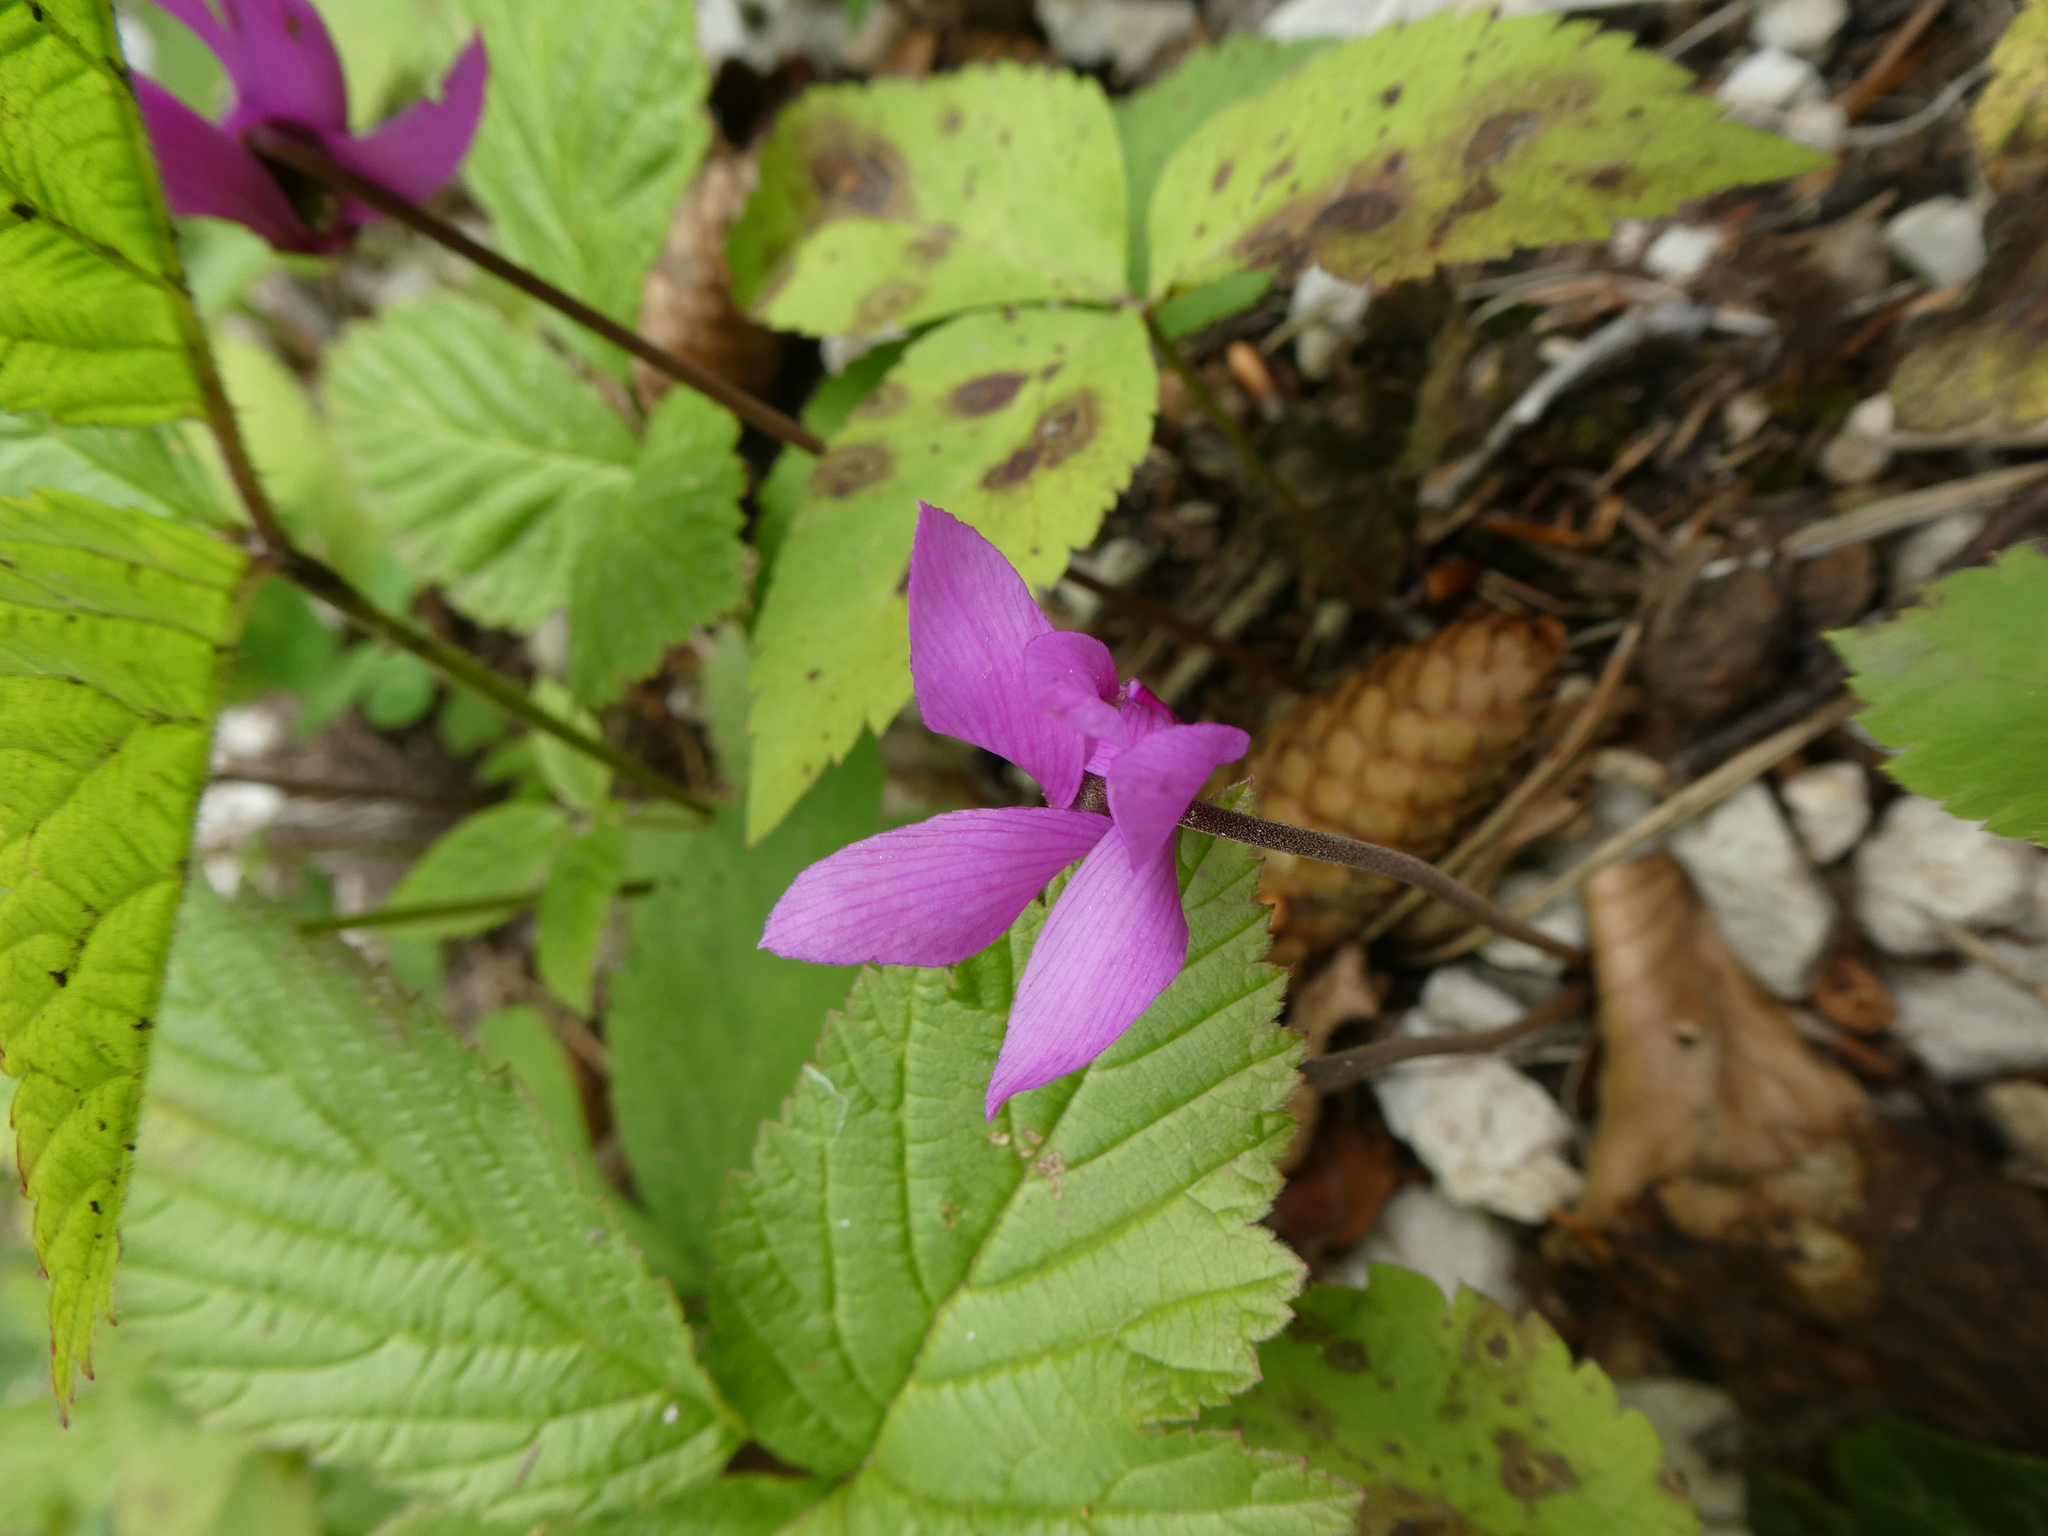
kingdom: Plantae
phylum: Tracheophyta
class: Magnoliopsida
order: Ericales
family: Primulaceae
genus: Cyclamen
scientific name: Cyclamen purpurascens
